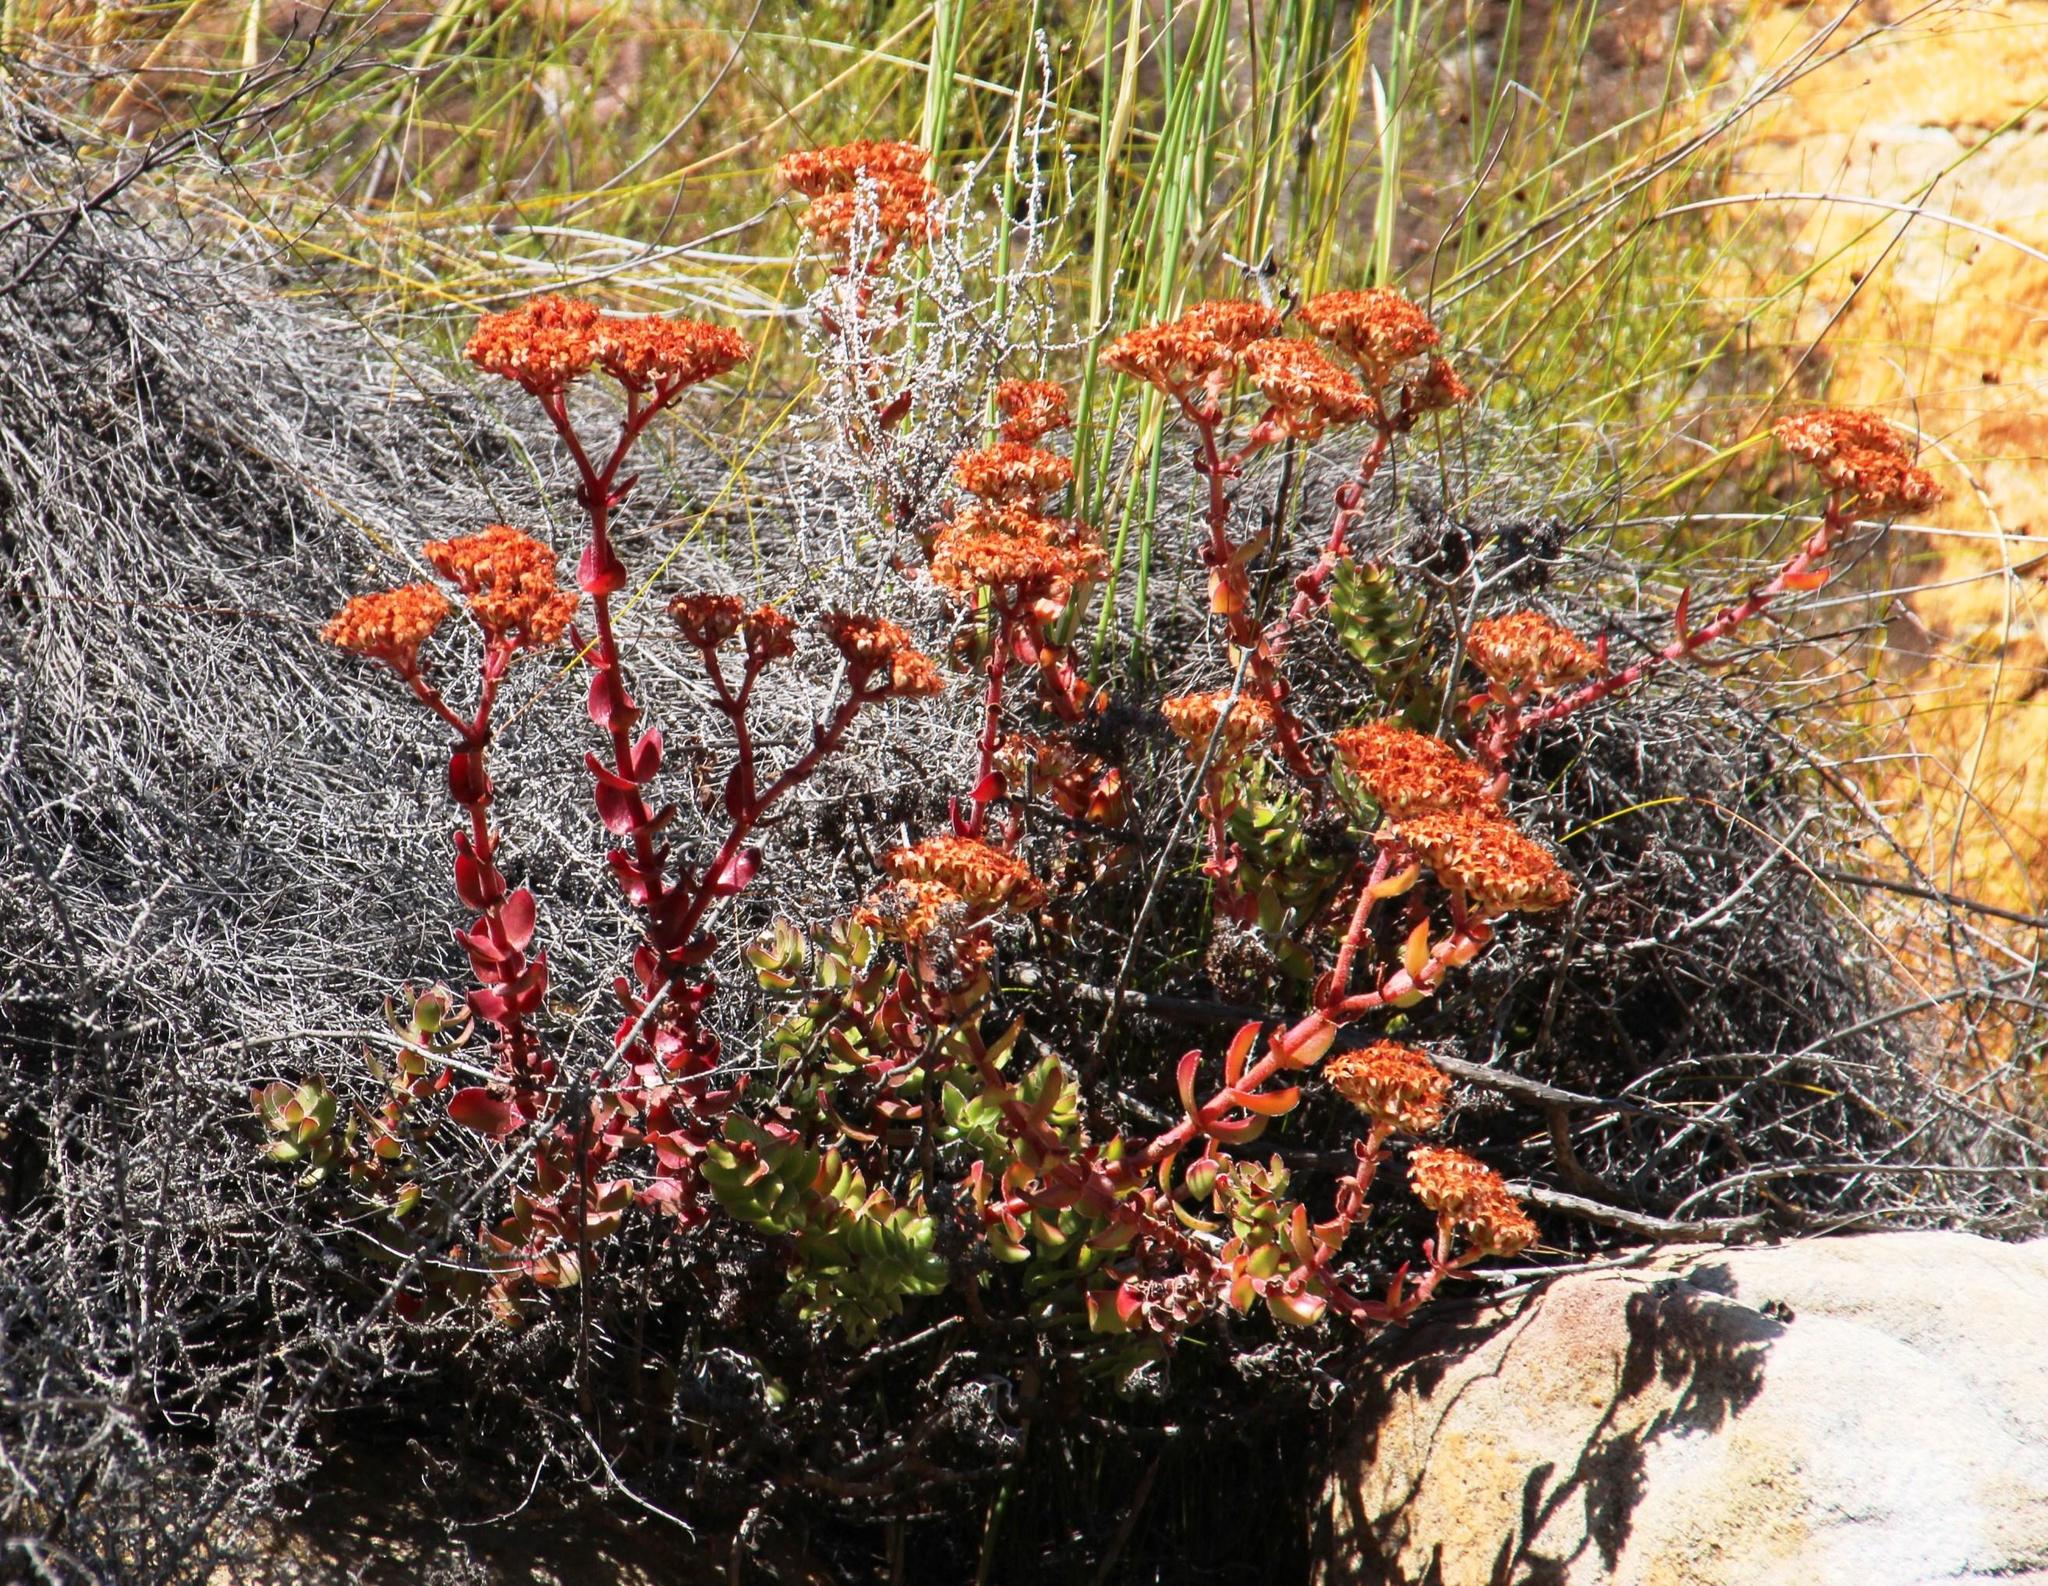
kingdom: Plantae
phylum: Tracheophyta
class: Magnoliopsida
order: Saxifragales
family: Crassulaceae
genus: Crassula
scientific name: Crassula undulata
